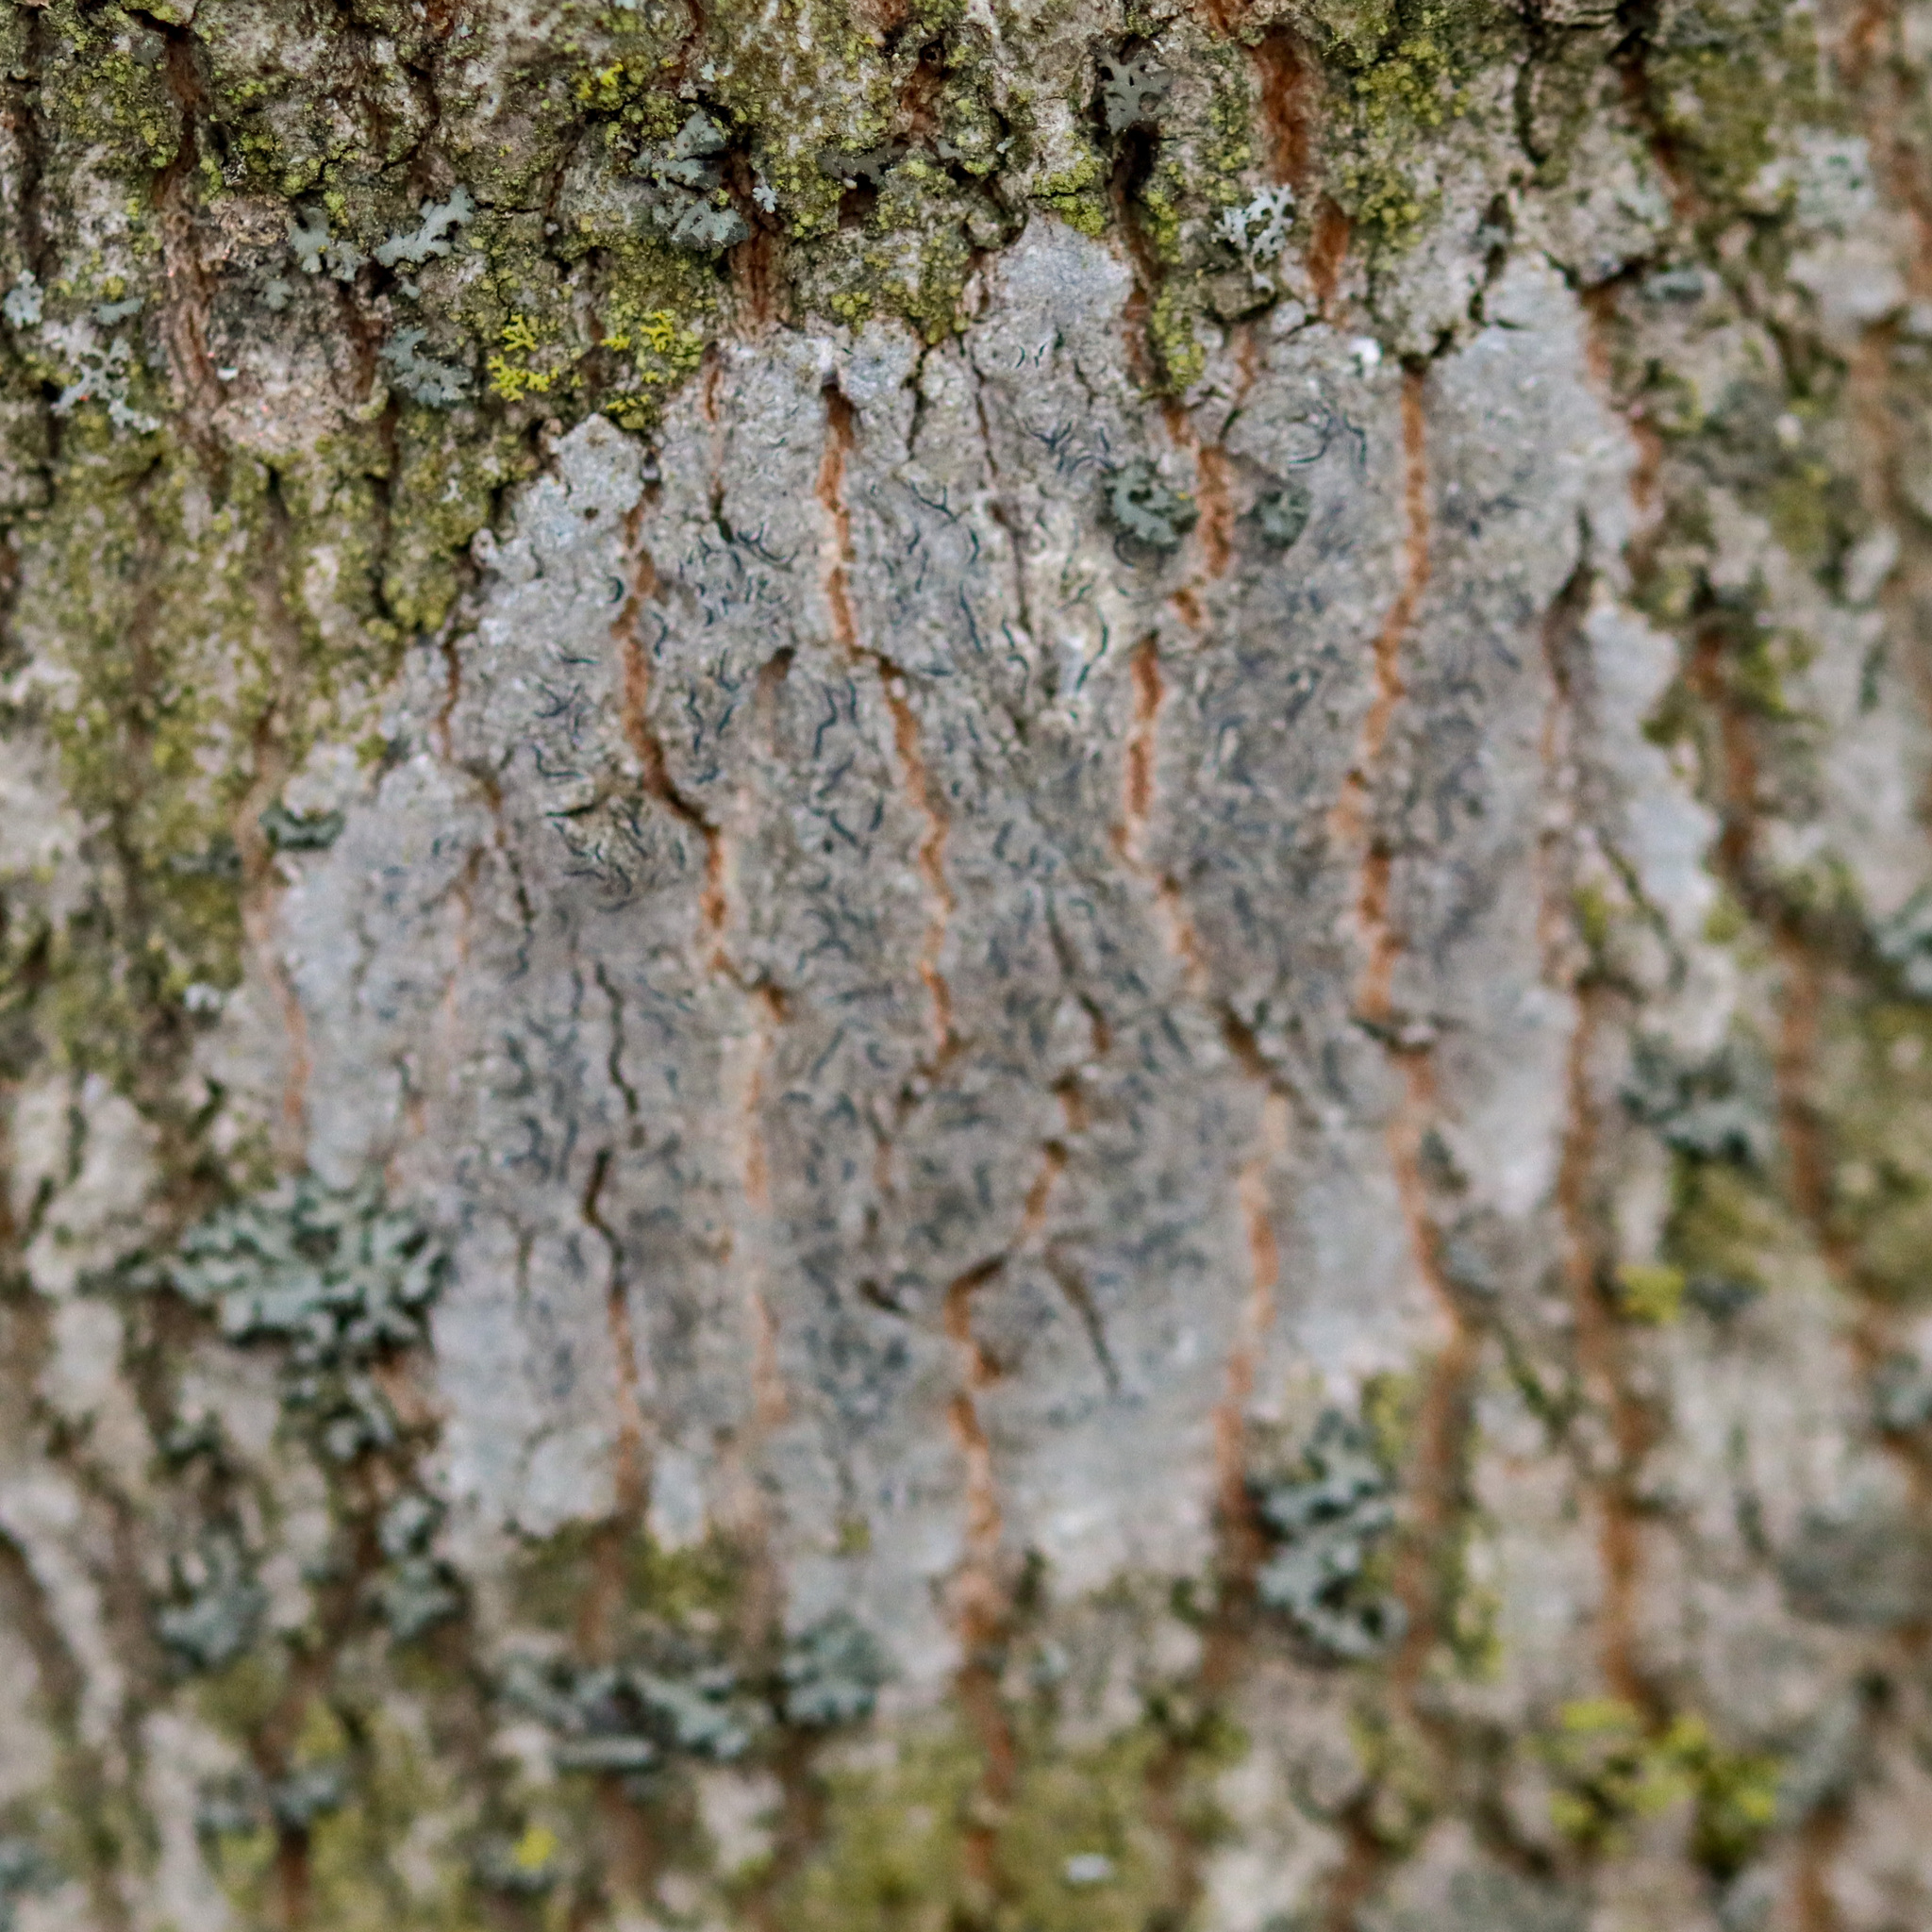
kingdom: Fungi
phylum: Ascomycota
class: Lecanoromycetes
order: Ostropales
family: Graphidaceae
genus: Graphis
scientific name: Graphis scripta
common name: Script lichen
